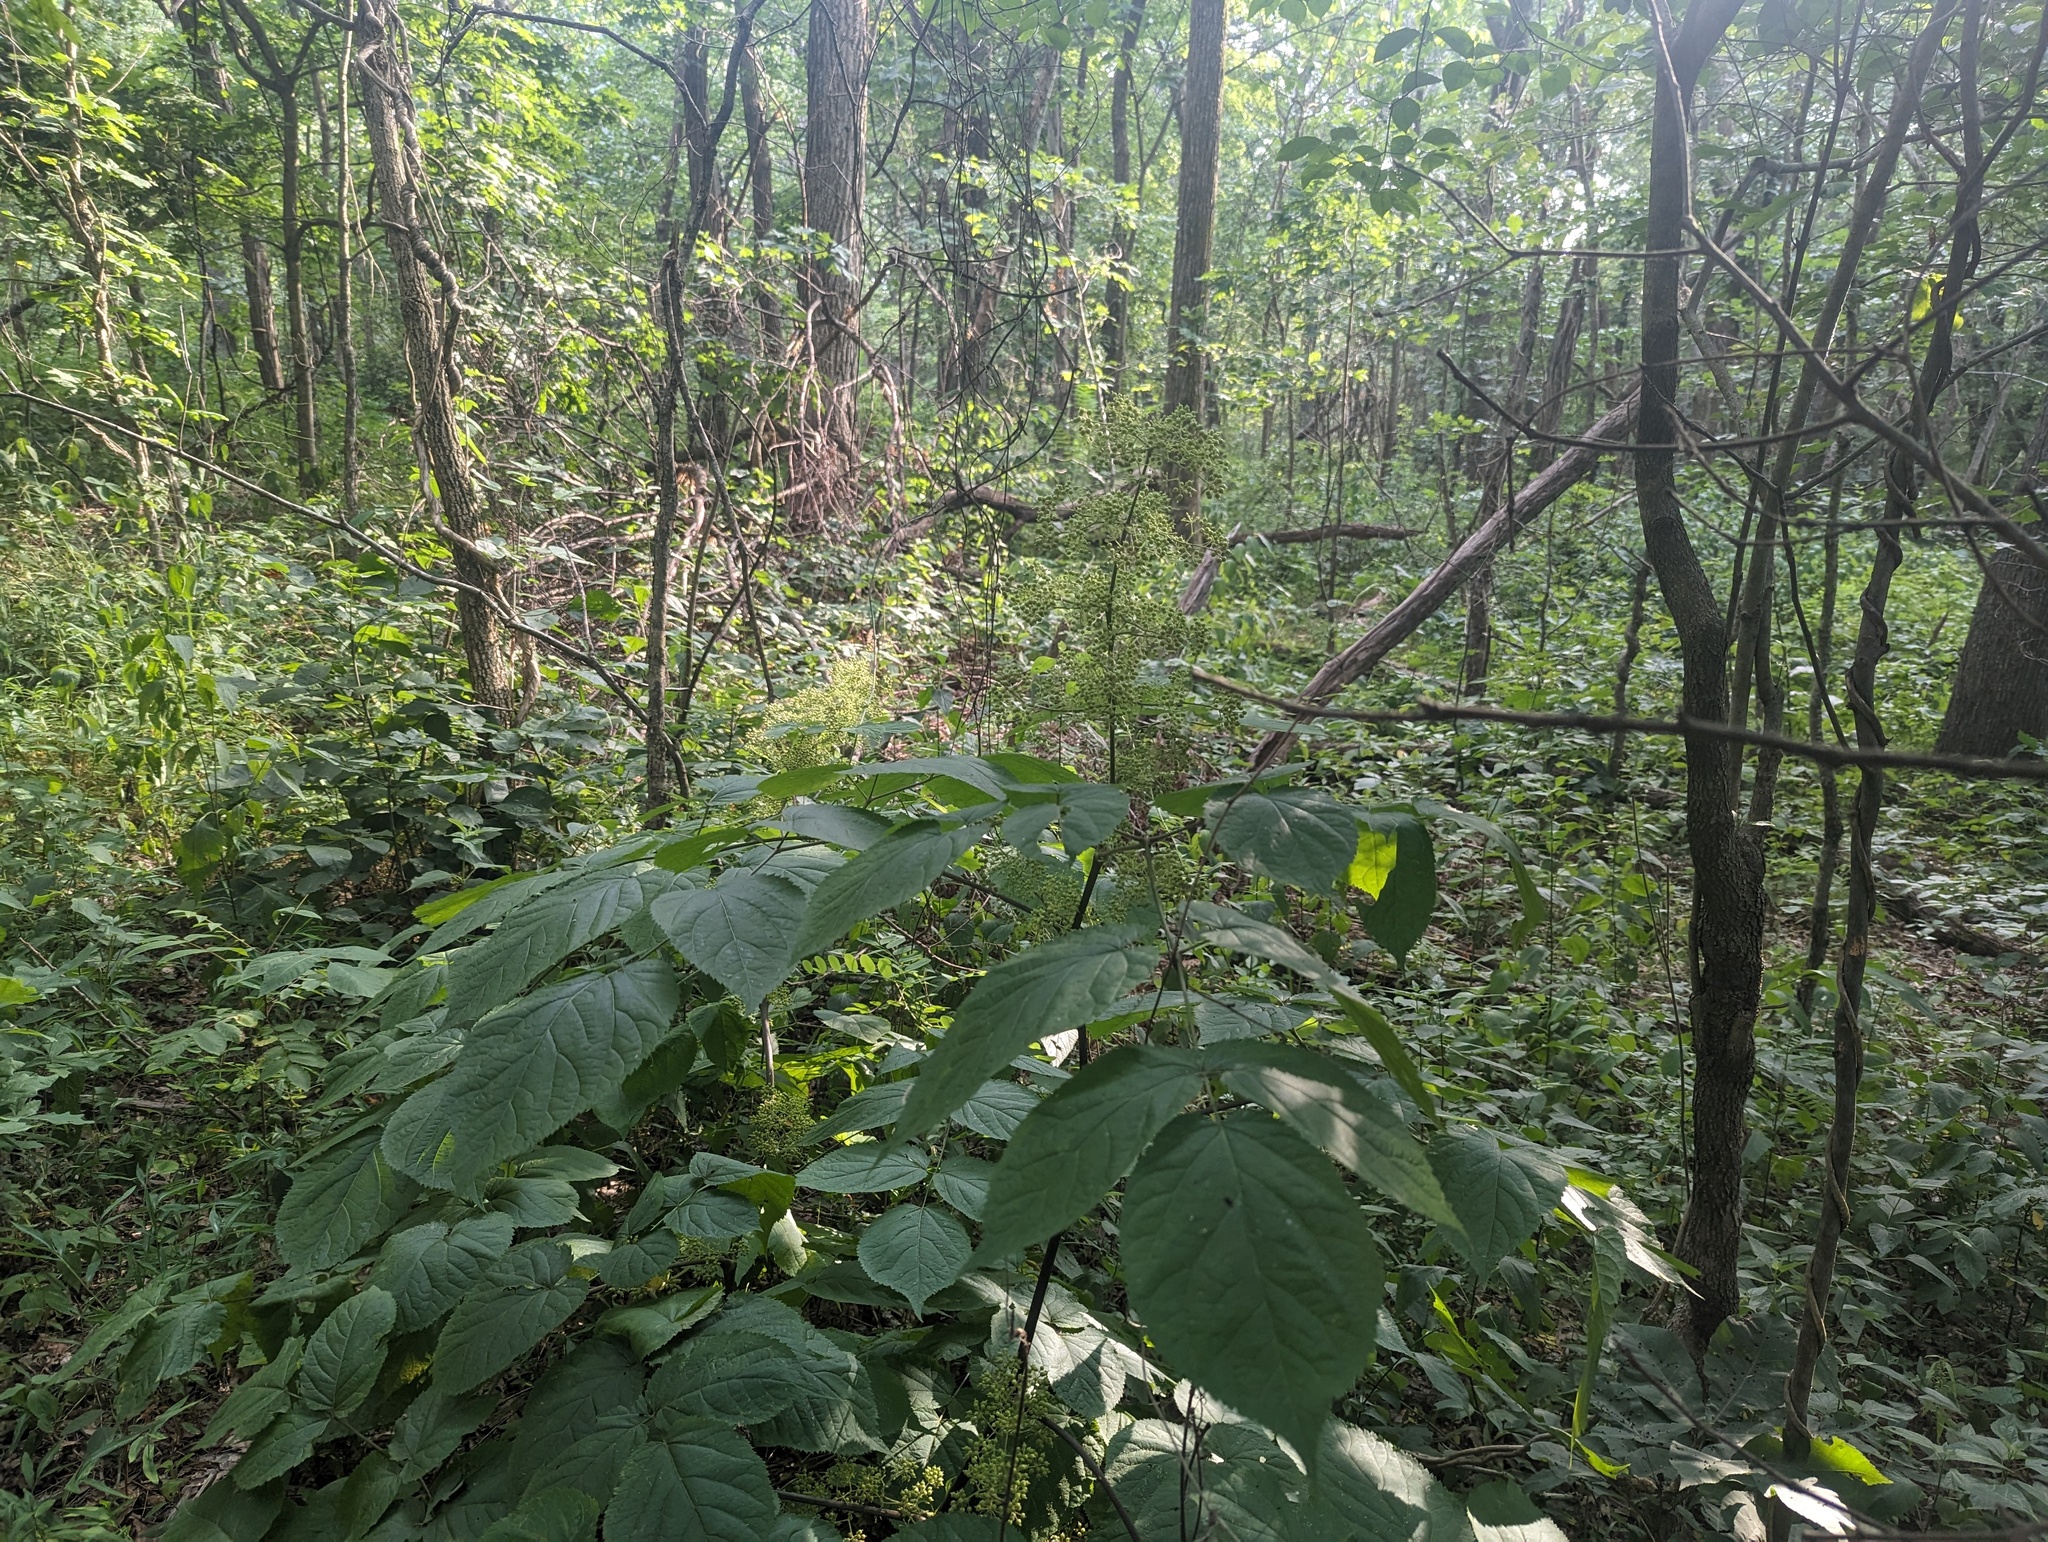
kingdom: Plantae
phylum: Tracheophyta
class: Magnoliopsida
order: Apiales
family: Araliaceae
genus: Aralia
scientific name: Aralia racemosa
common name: American-spikenard
